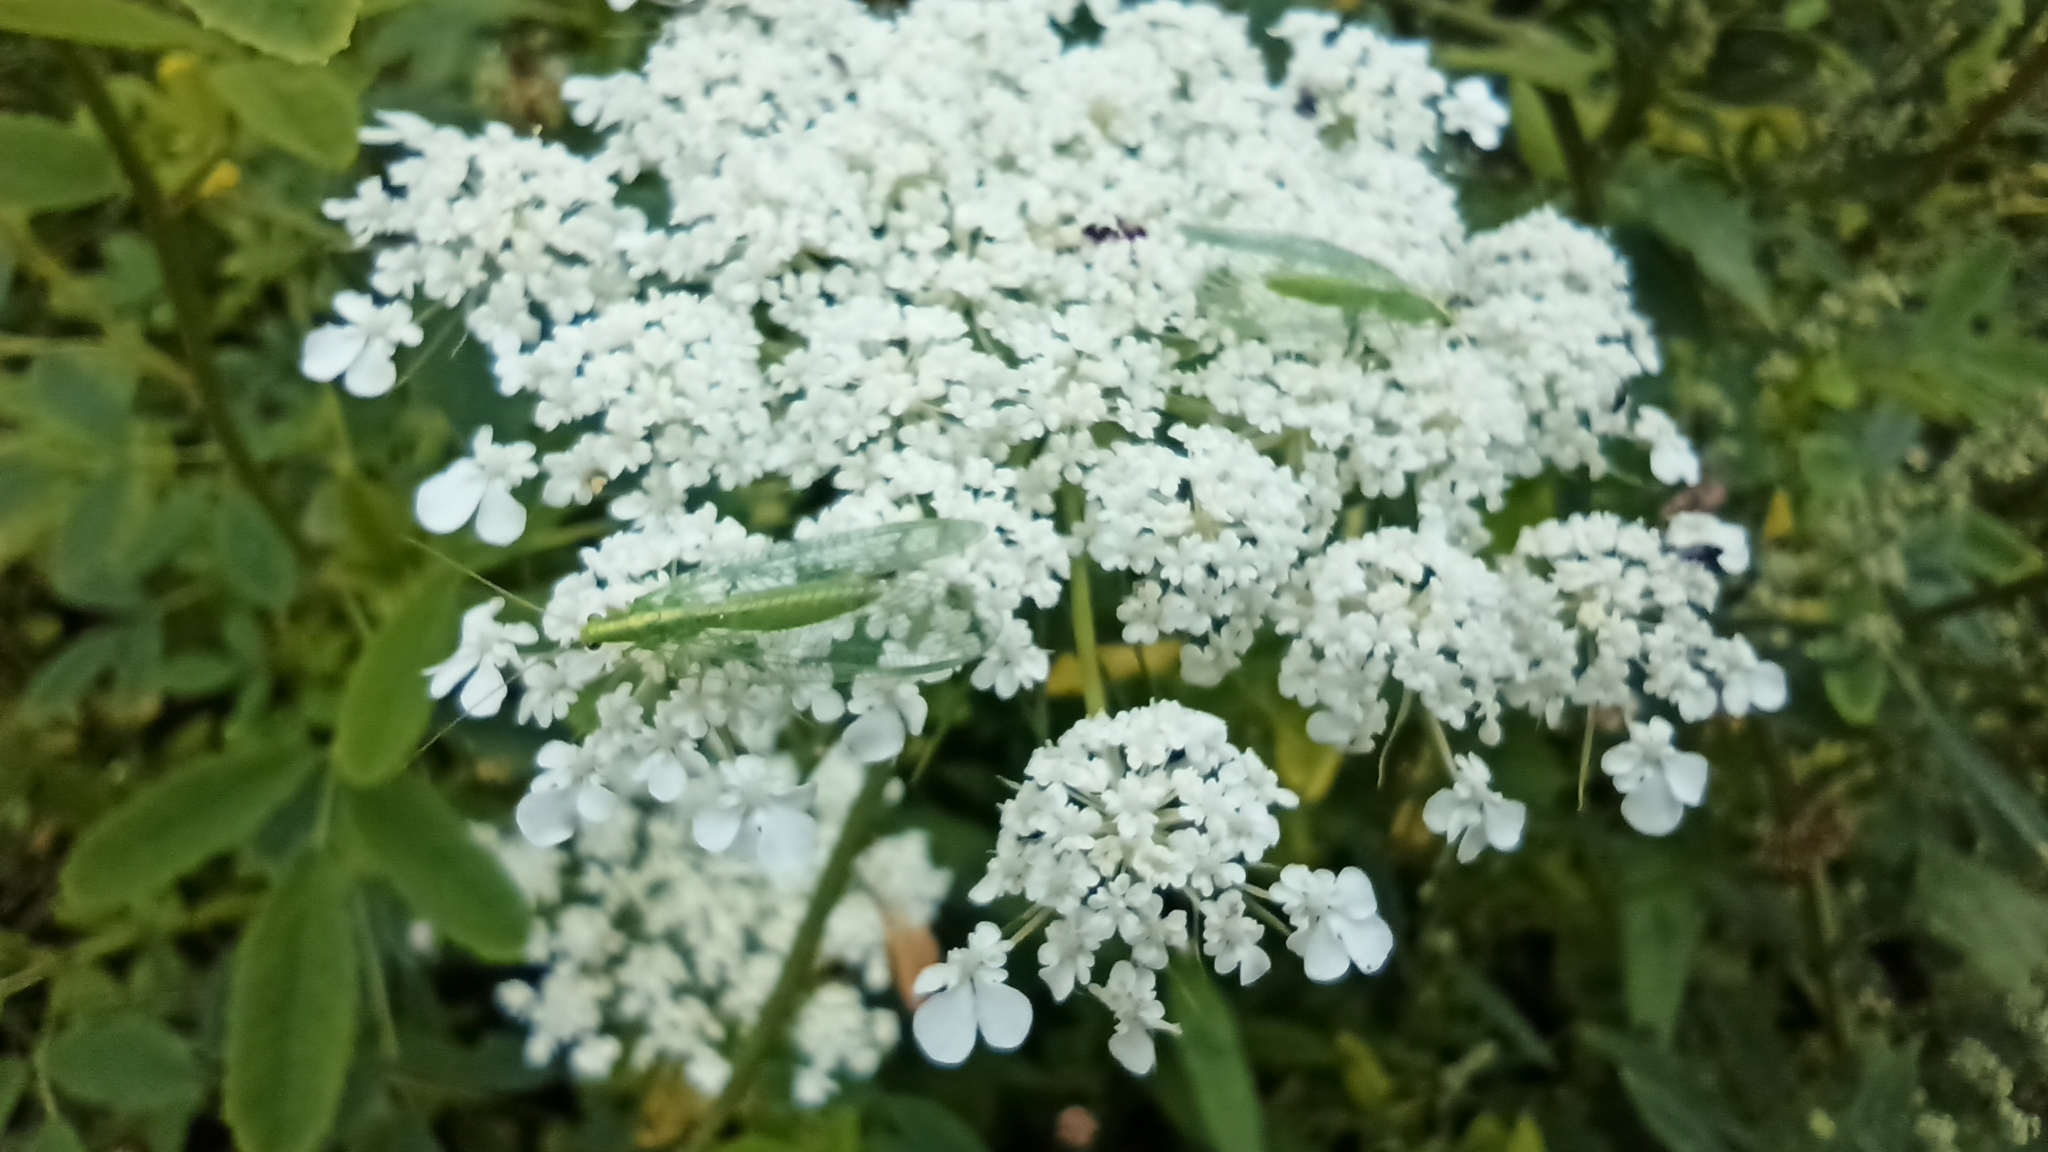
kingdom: Animalia
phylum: Arthropoda
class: Insecta
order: Neuroptera
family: Chrysopidae
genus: Chrysoperla
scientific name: Chrysoperla
